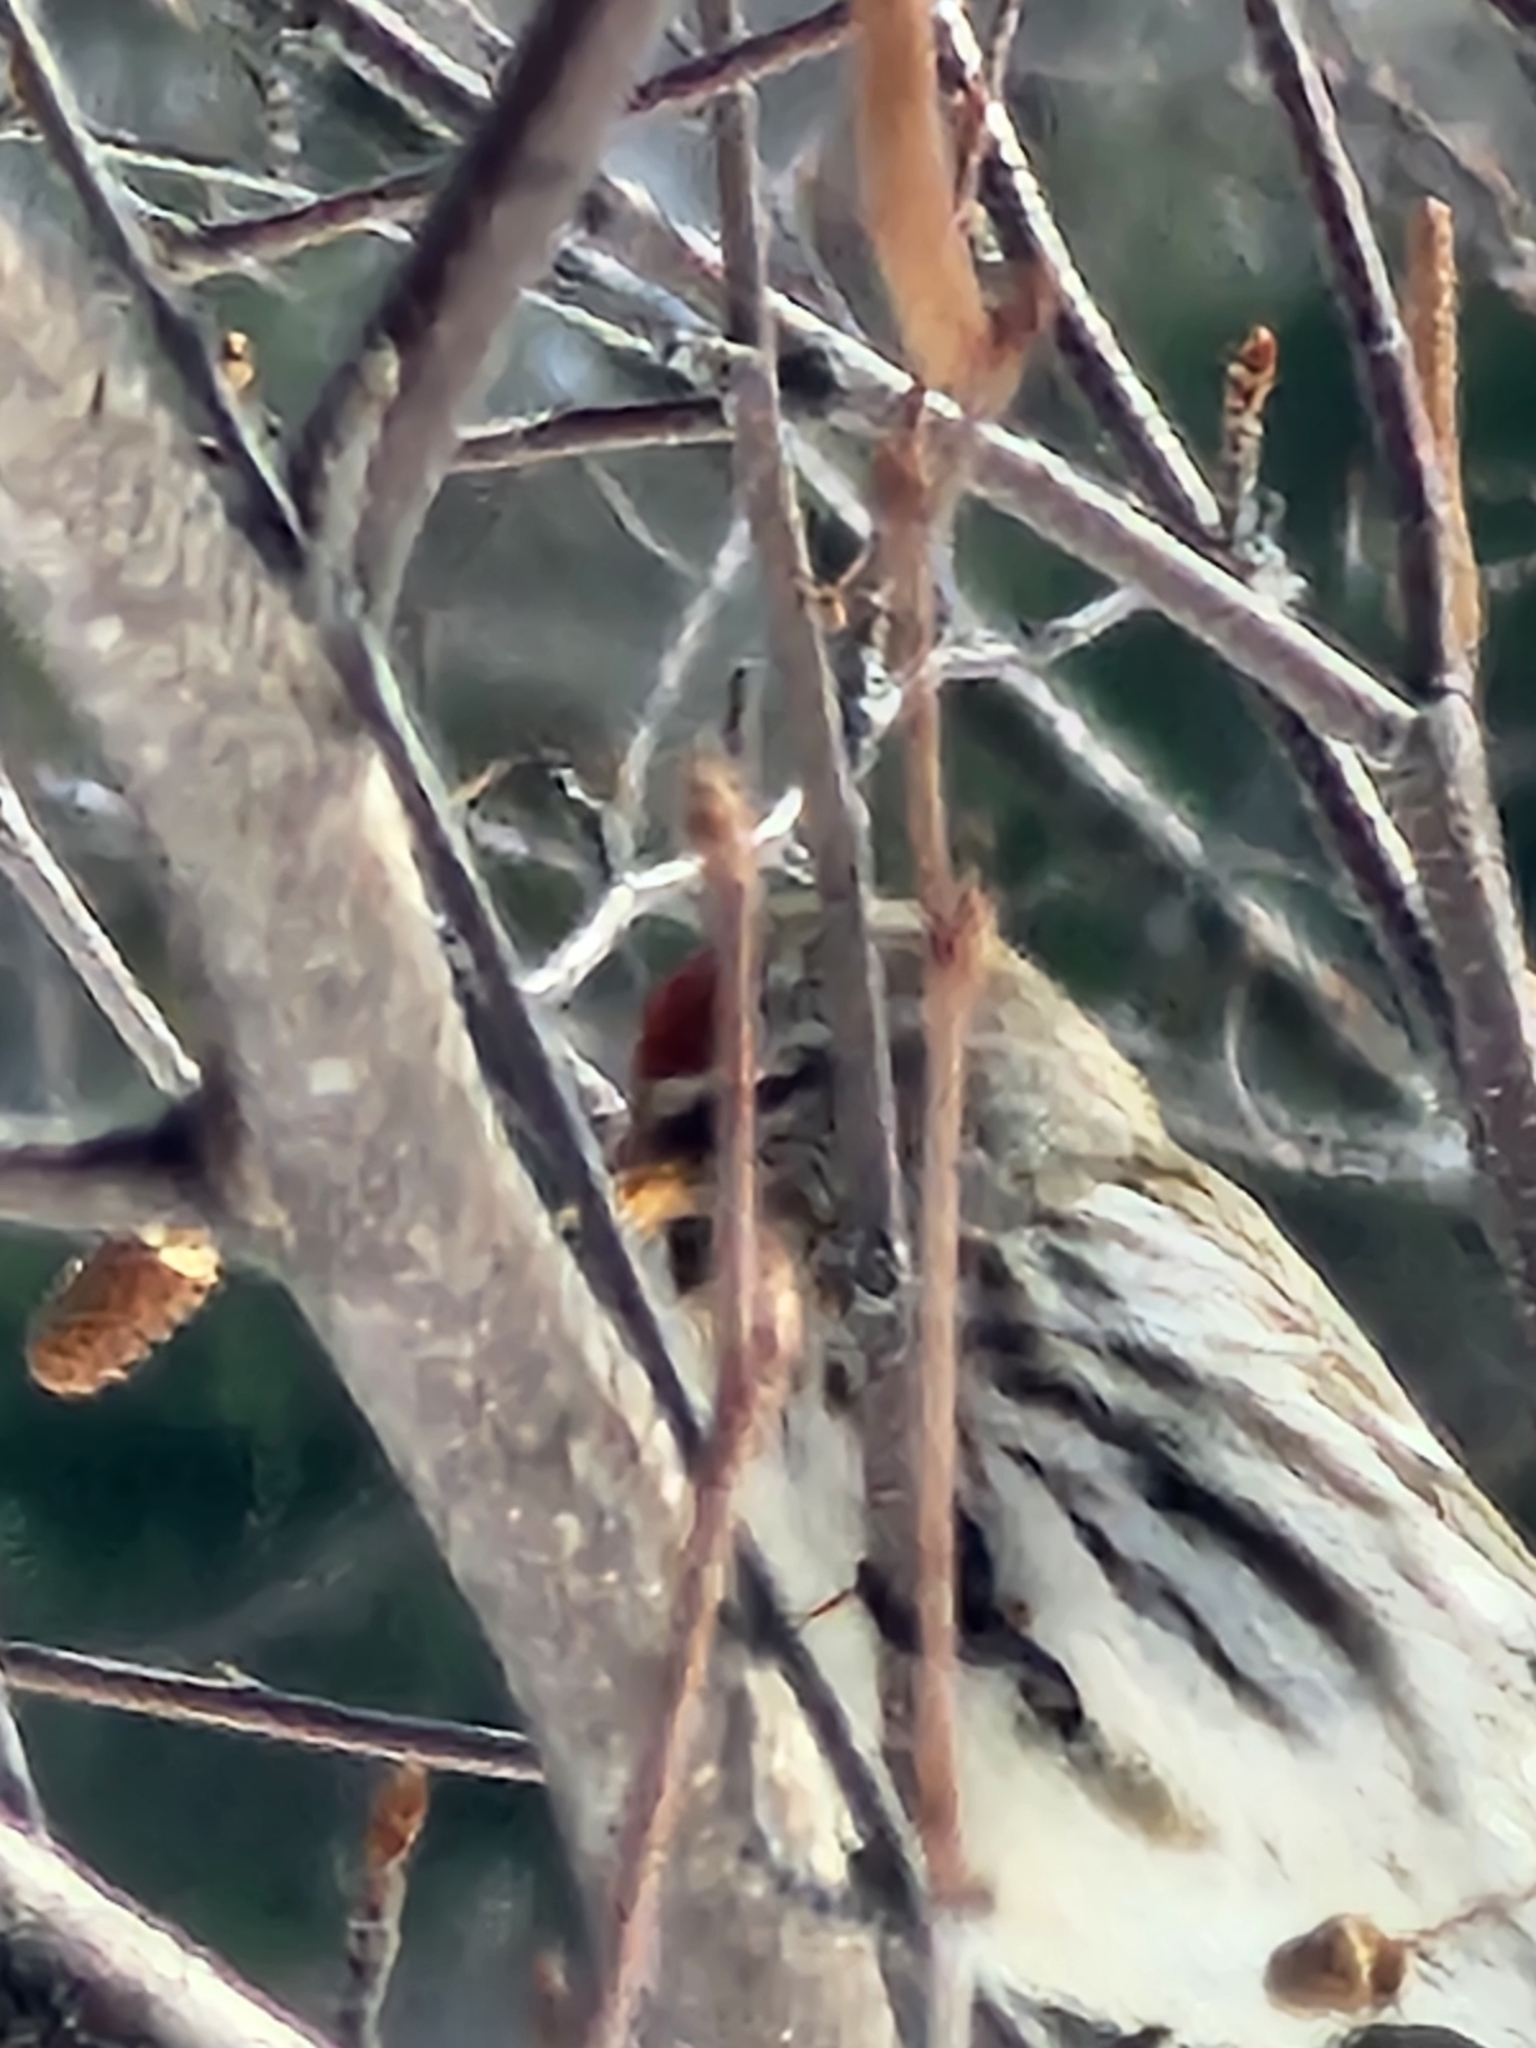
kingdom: Animalia
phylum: Chordata
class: Aves
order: Passeriformes
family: Fringillidae
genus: Acanthis
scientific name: Acanthis flammea
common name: Common redpoll
